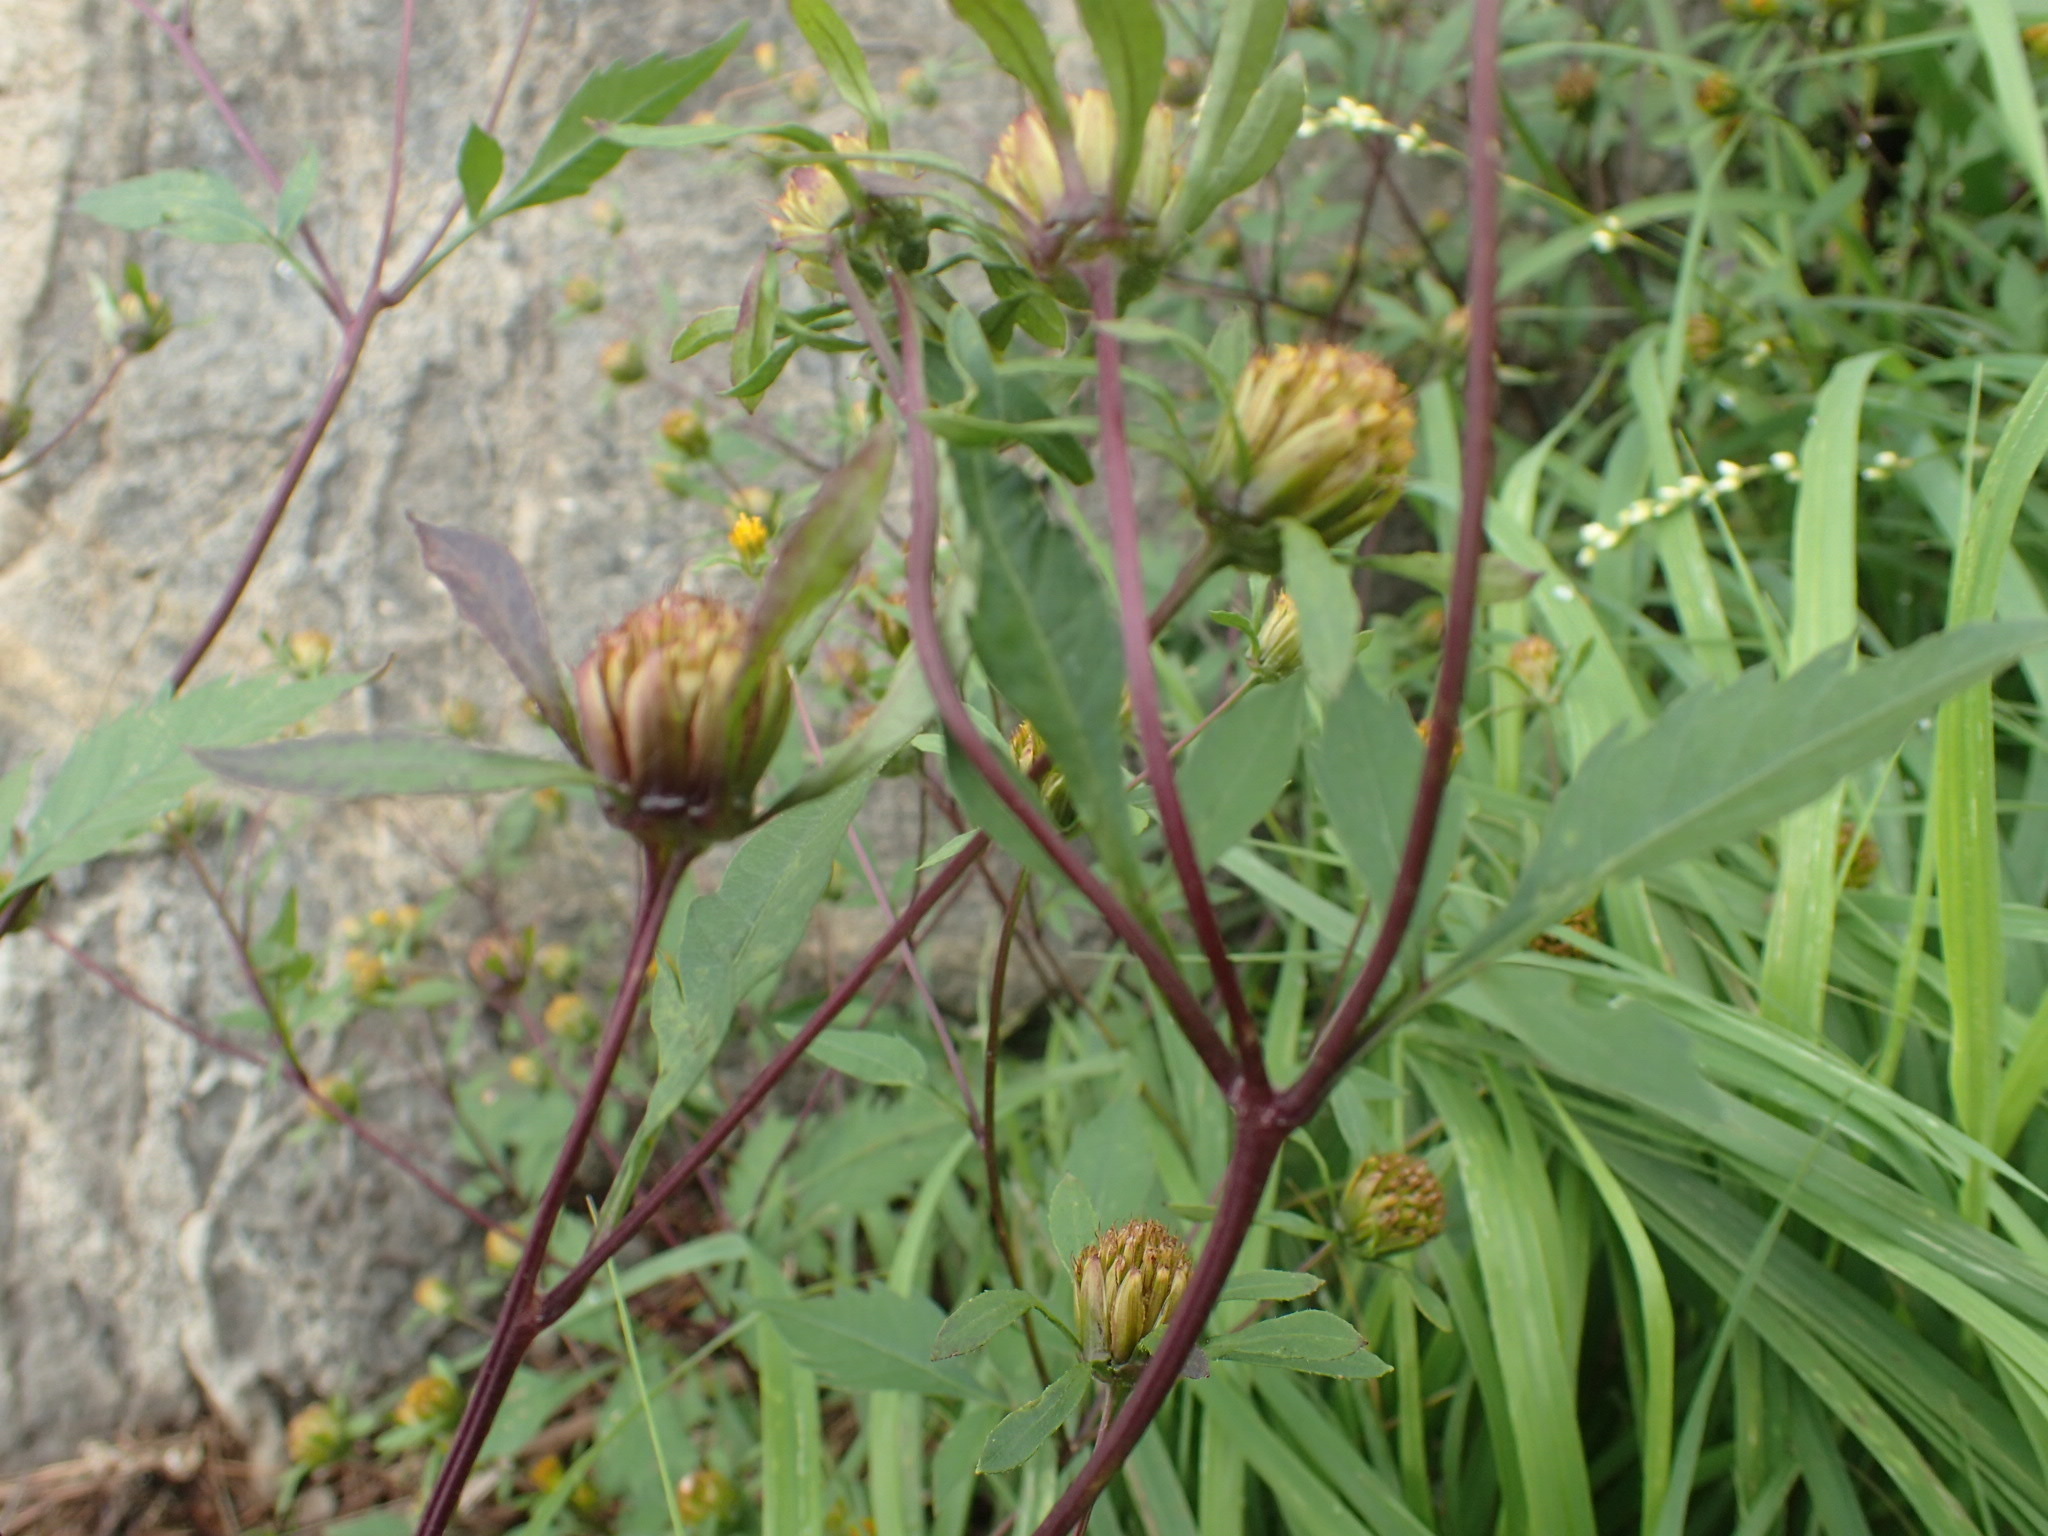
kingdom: Plantae
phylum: Tracheophyta
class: Magnoliopsida
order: Asterales
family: Asteraceae
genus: Bidens
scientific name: Bidens frondosa
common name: Beggarticks
